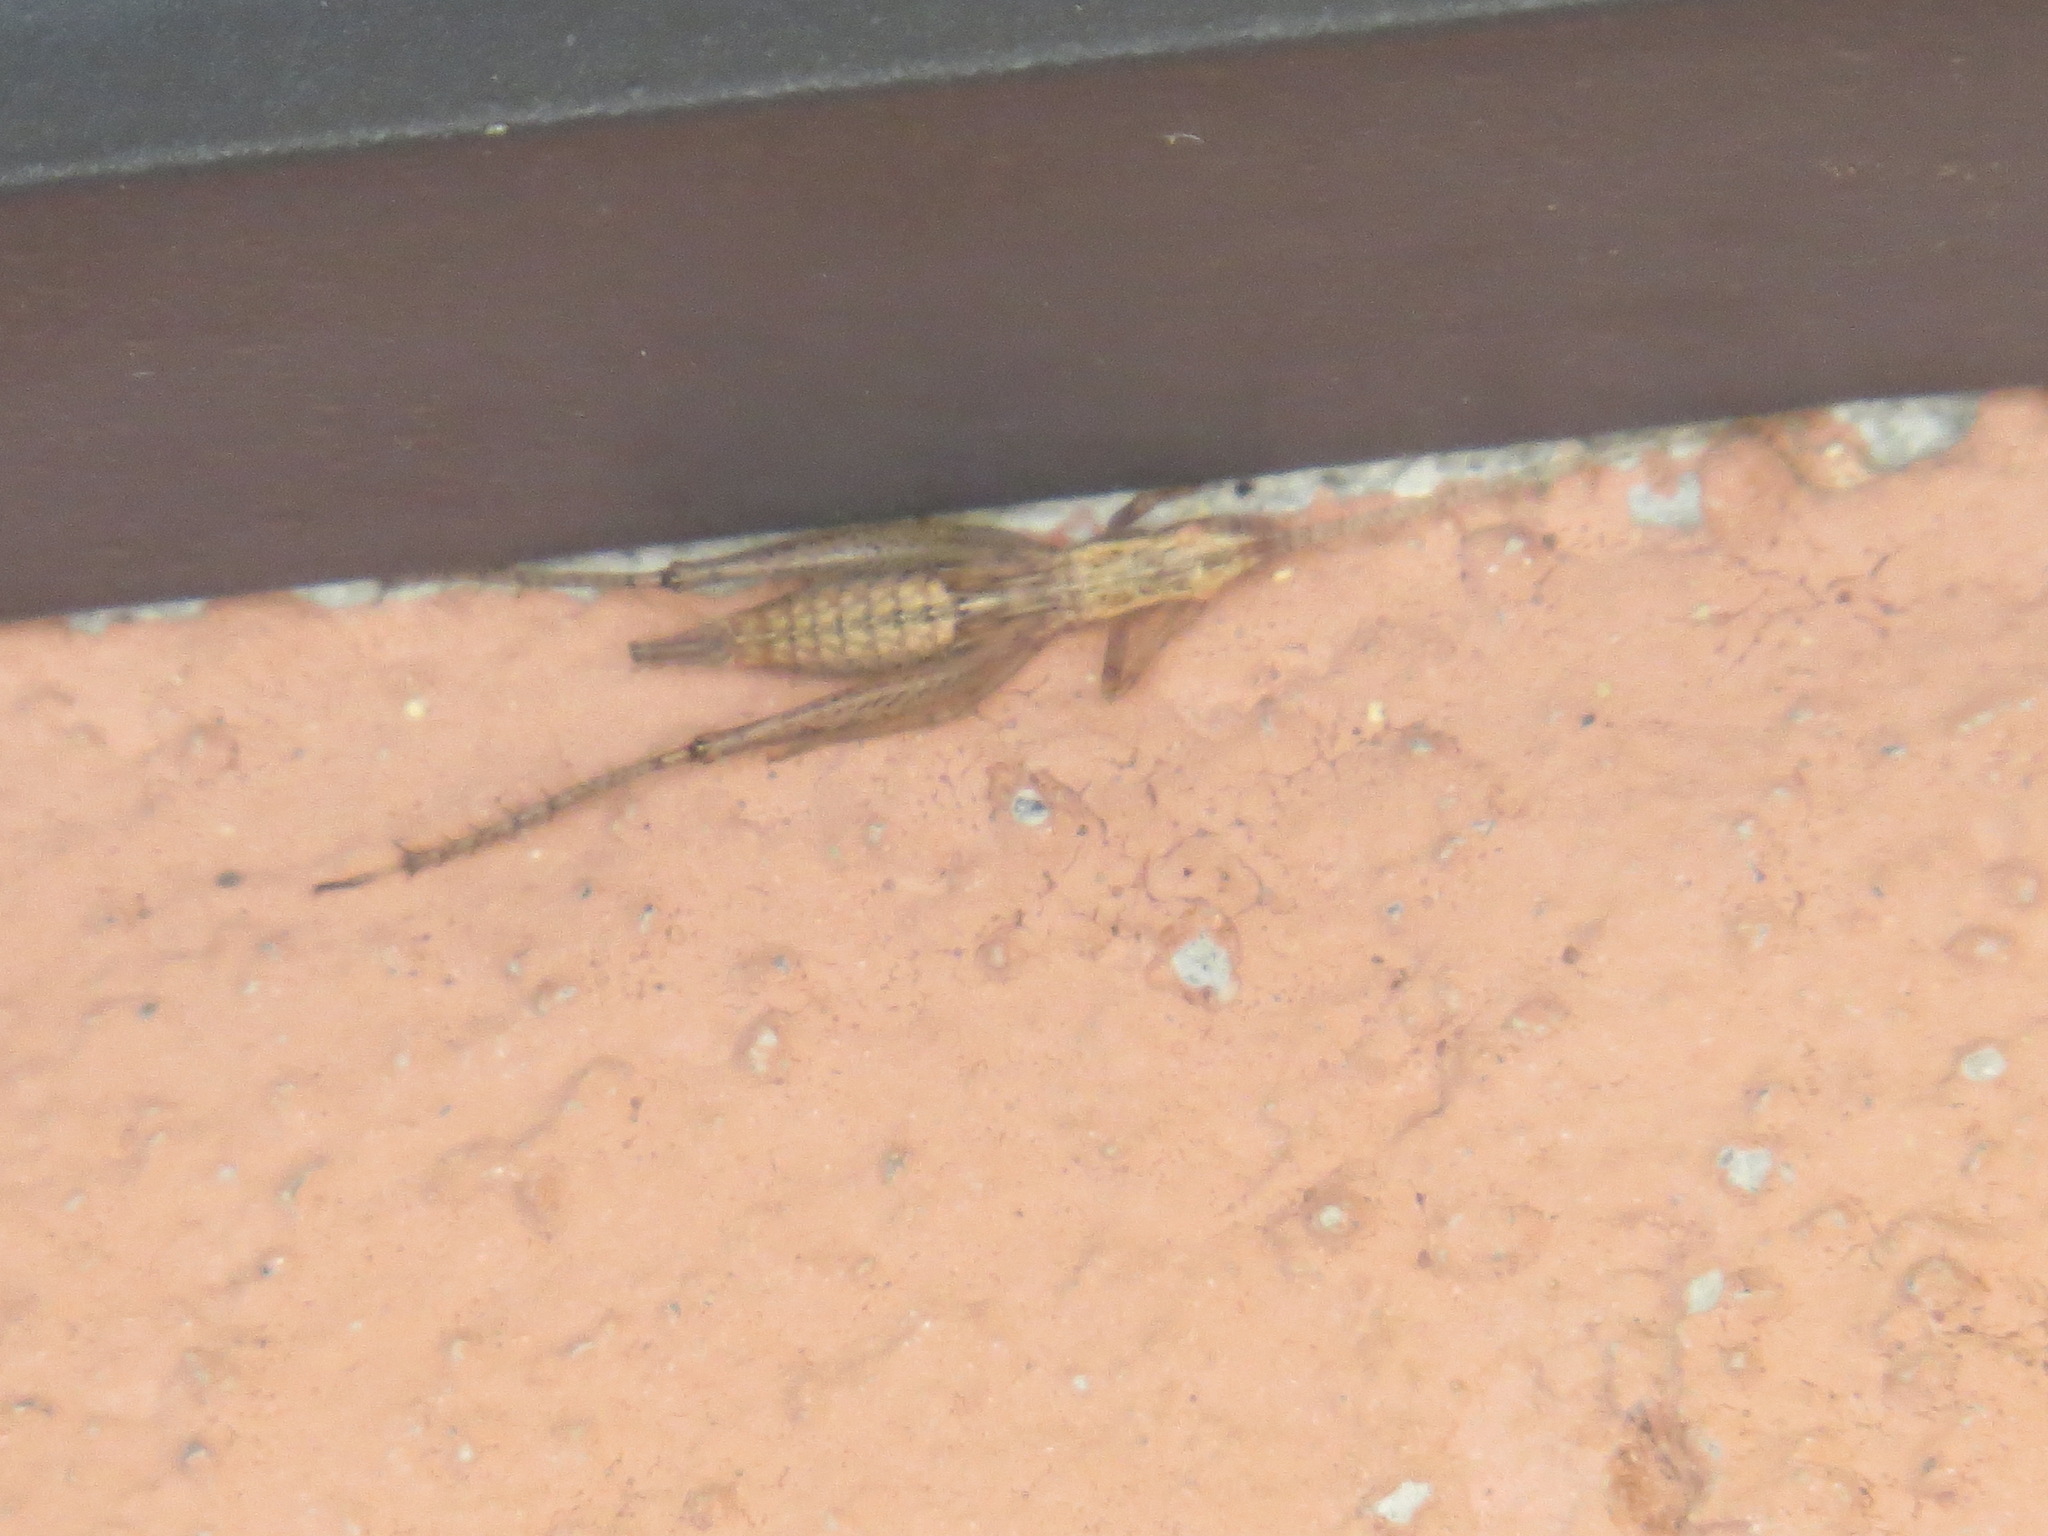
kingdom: Animalia
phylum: Arthropoda
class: Insecta
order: Orthoptera
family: Gryllidae
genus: Oecanthus
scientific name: Oecanthus californicus
